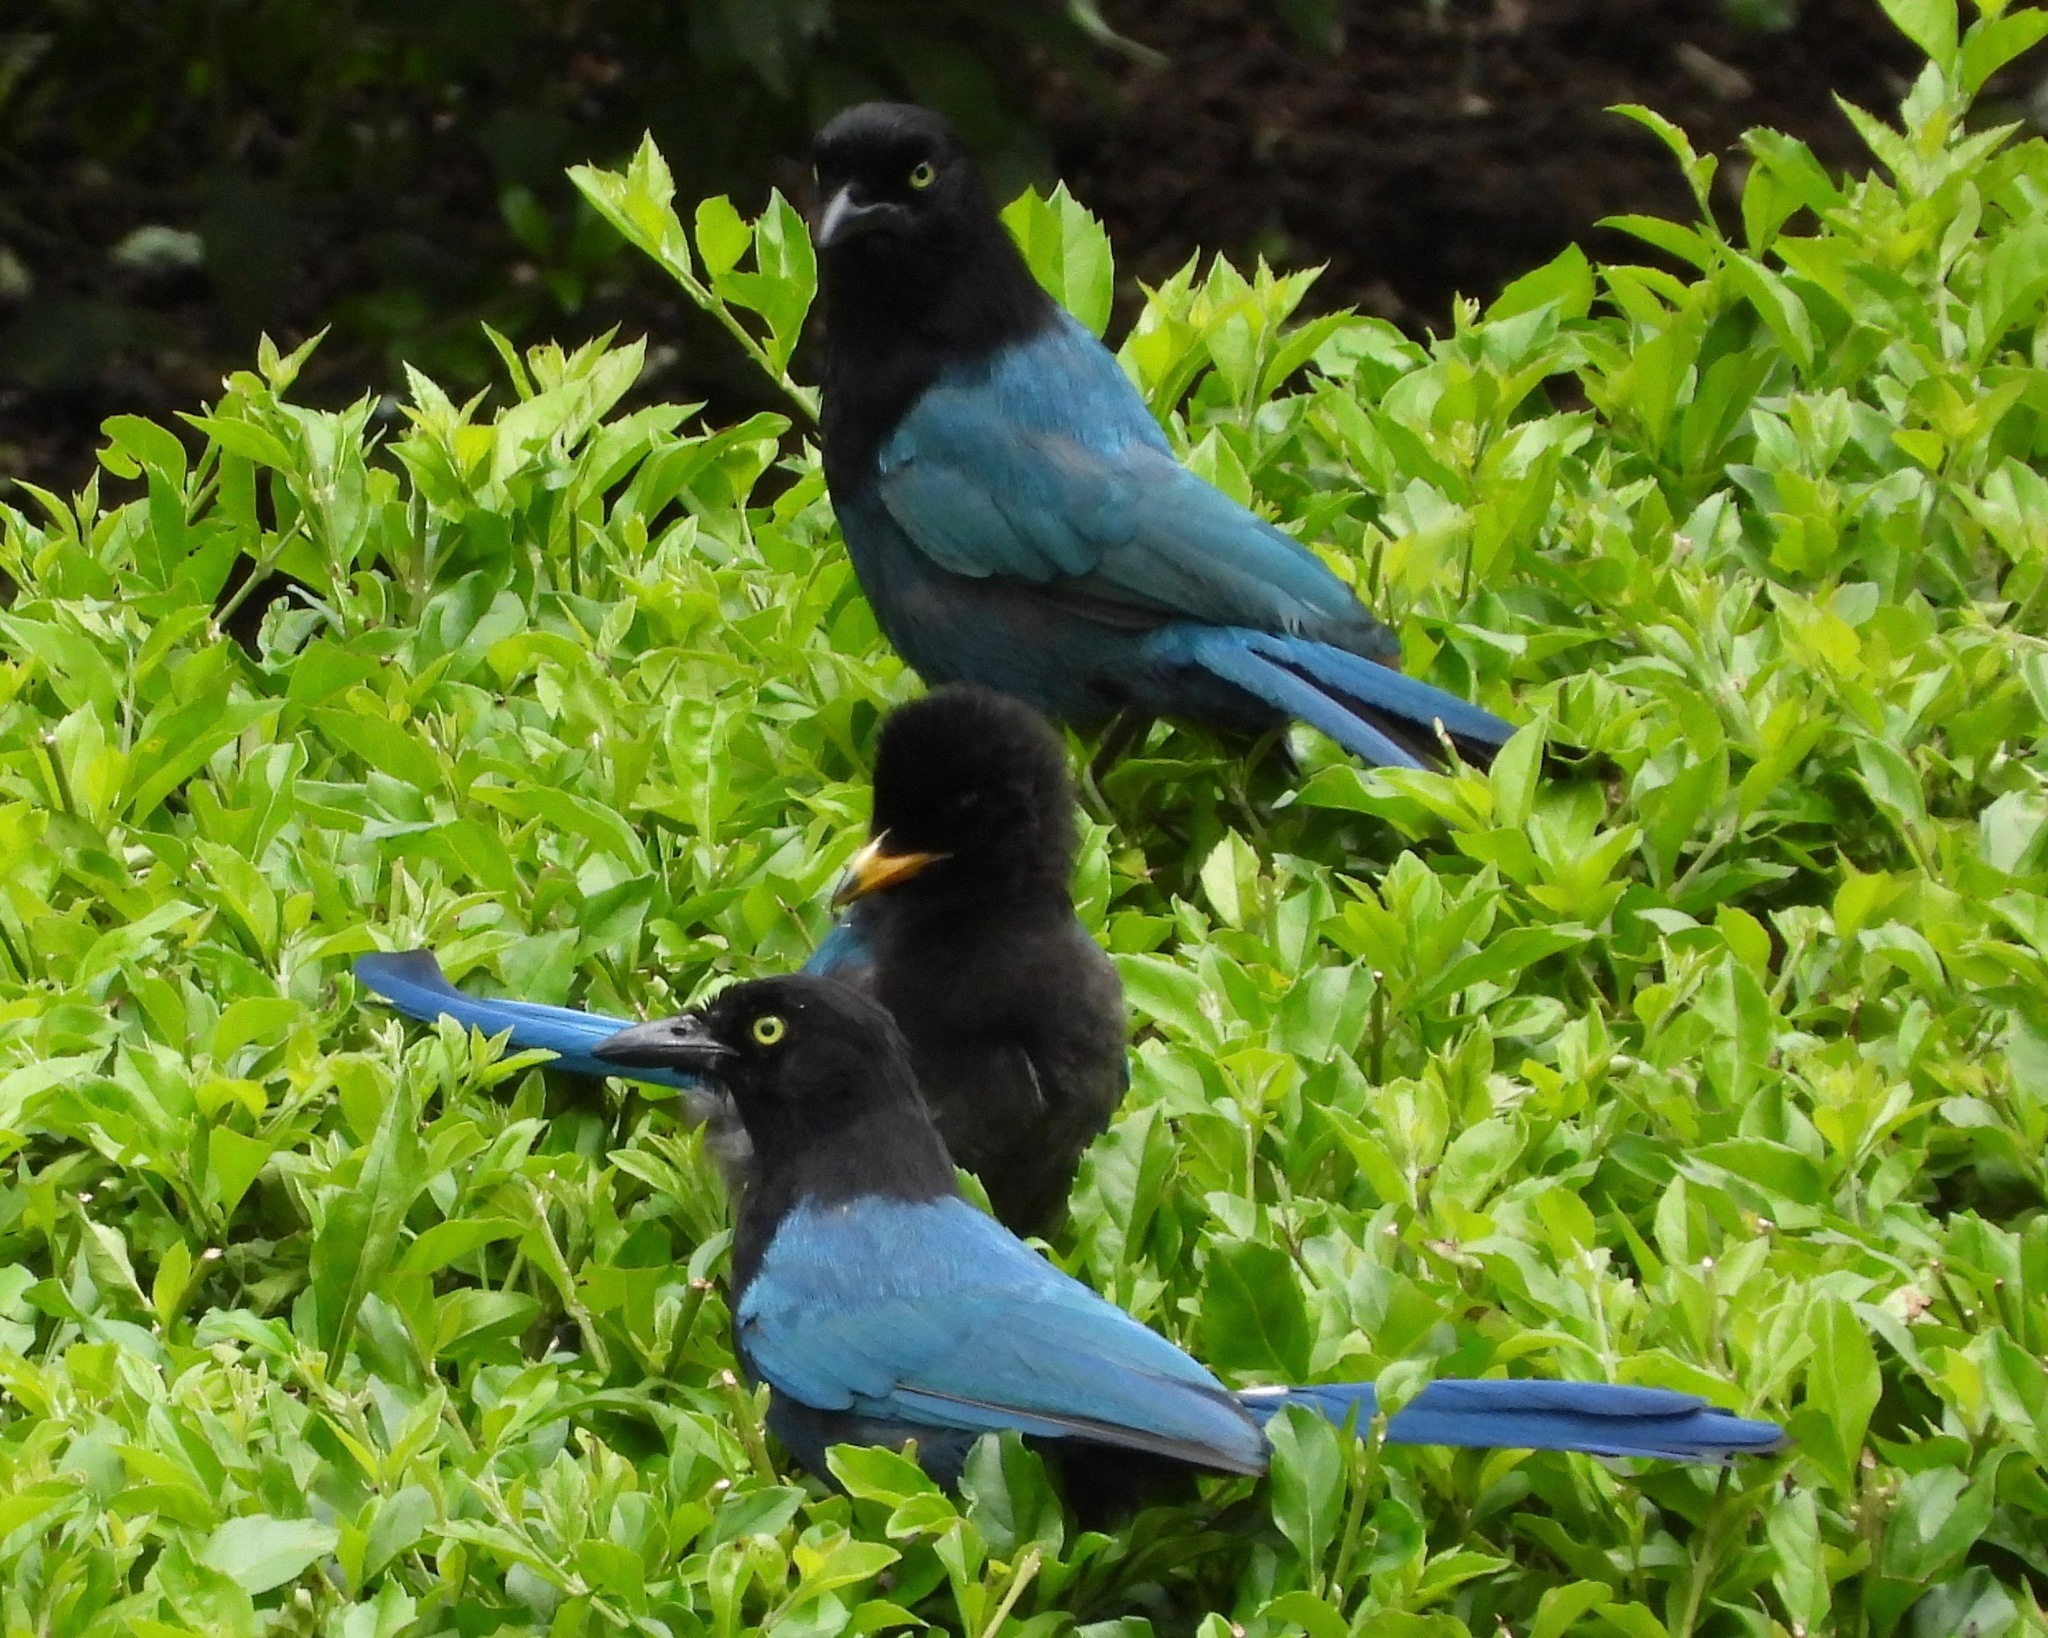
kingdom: Animalia
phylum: Chordata
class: Aves
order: Passeriformes
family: Corvidae
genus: Cyanocorax
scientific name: Cyanocorax melanocyaneus
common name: Bushy-crested jay
